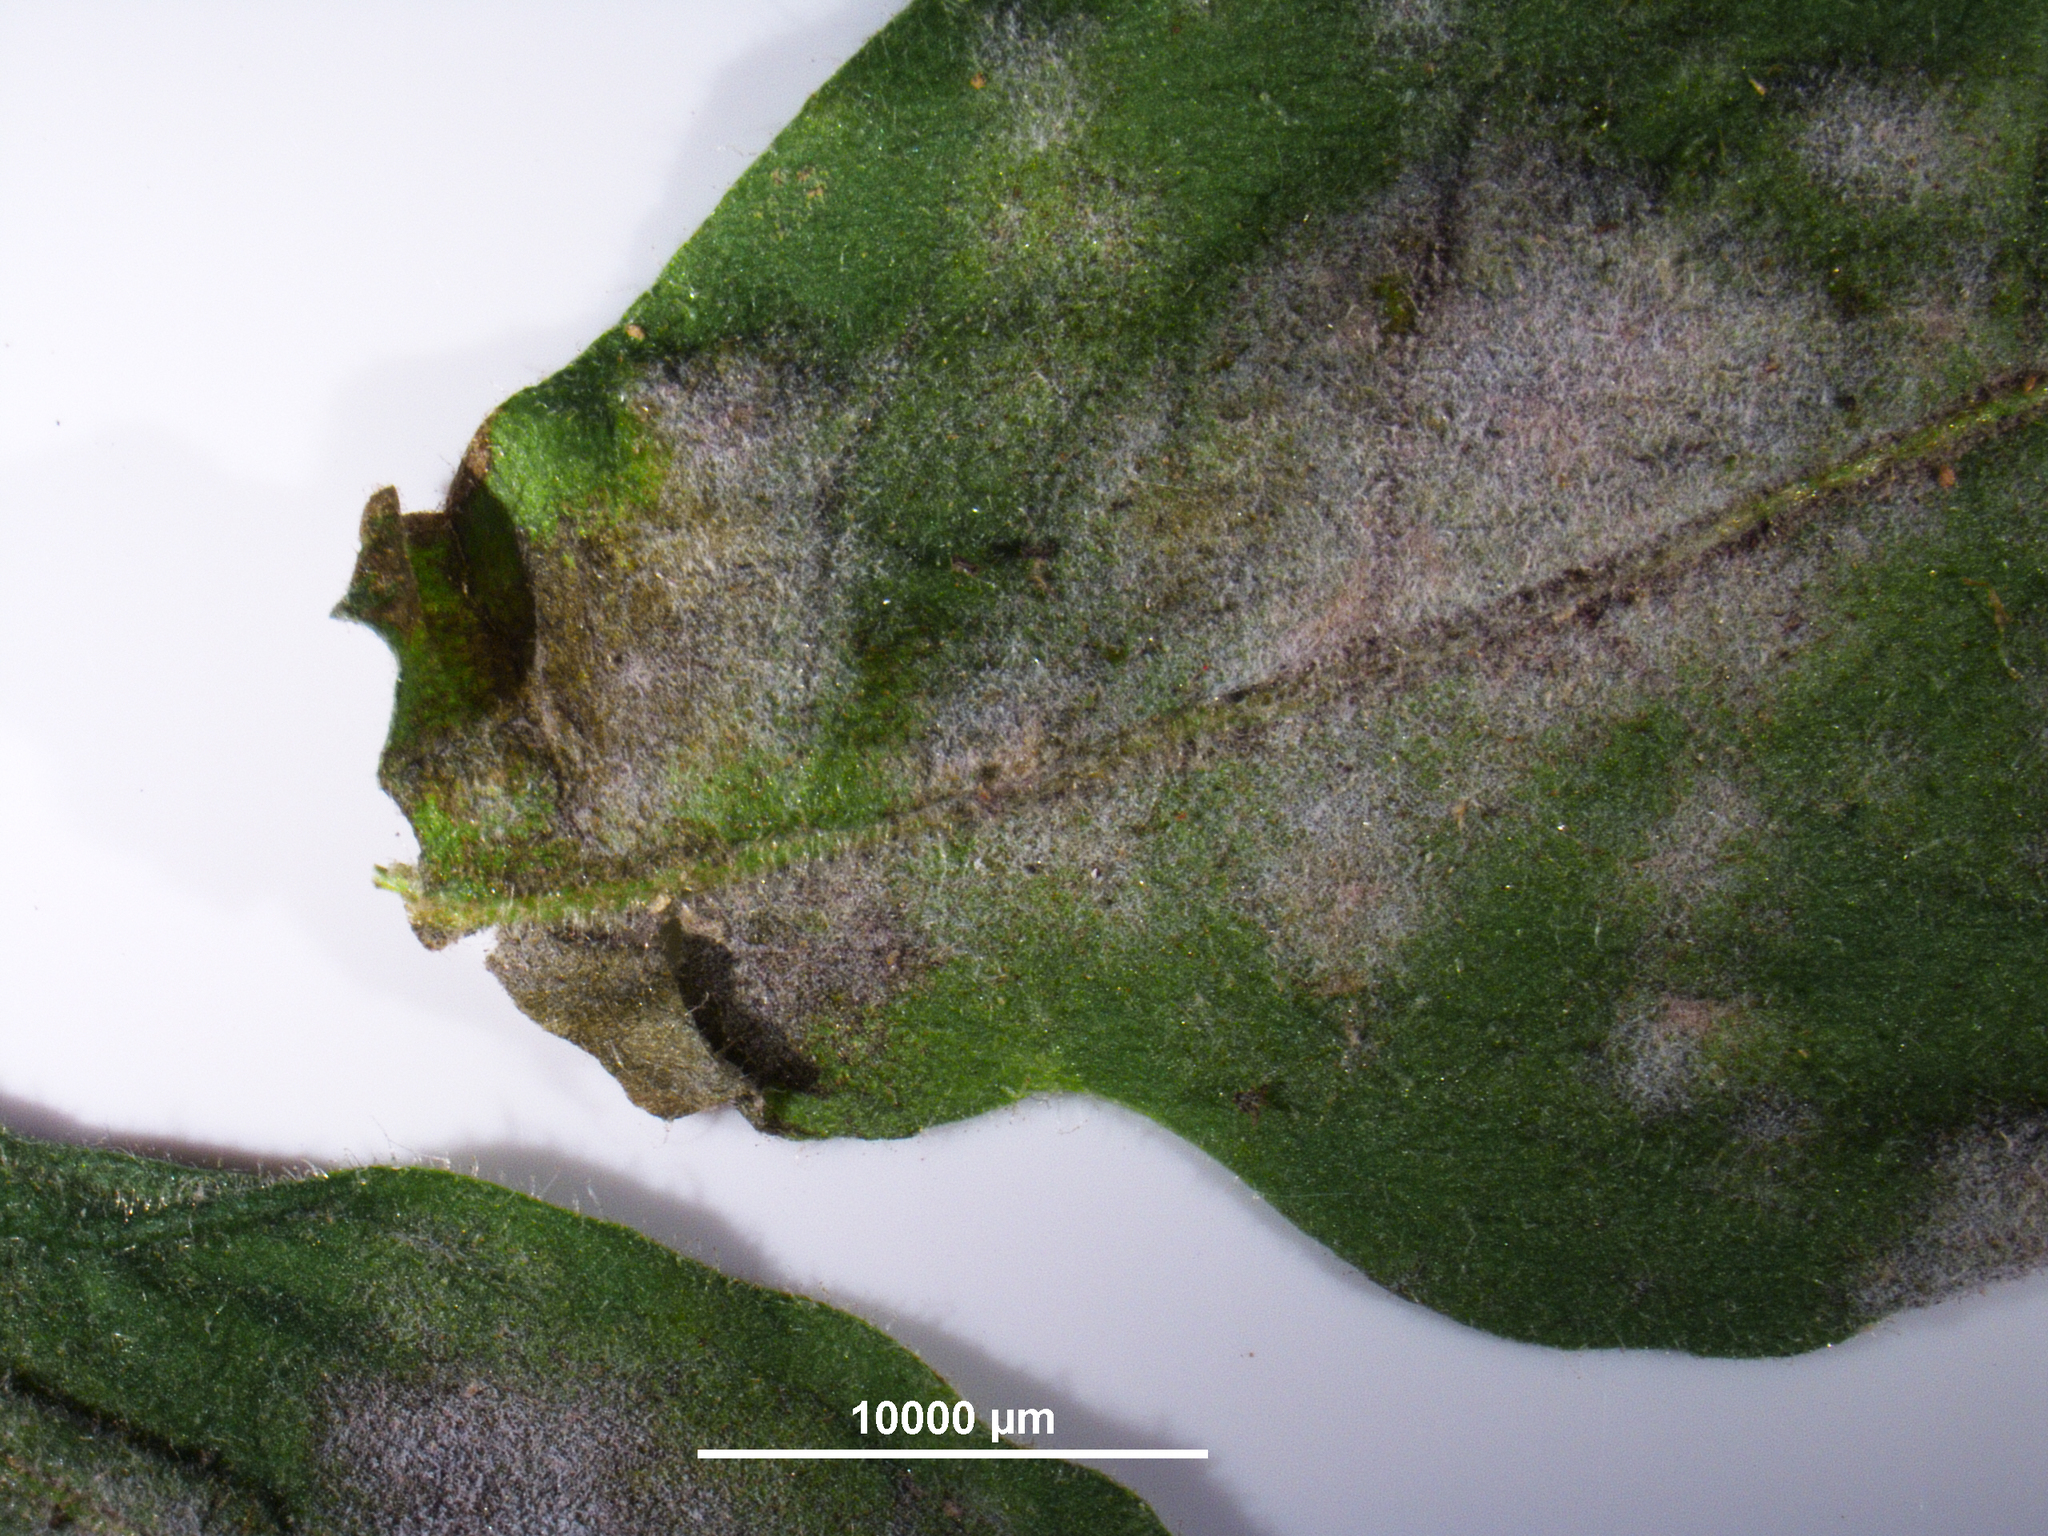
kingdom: Fungi
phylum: Ascomycota
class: Leotiomycetes
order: Helotiales
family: Erysiphaceae
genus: Golovinomyces
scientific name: Golovinomyces longipes
